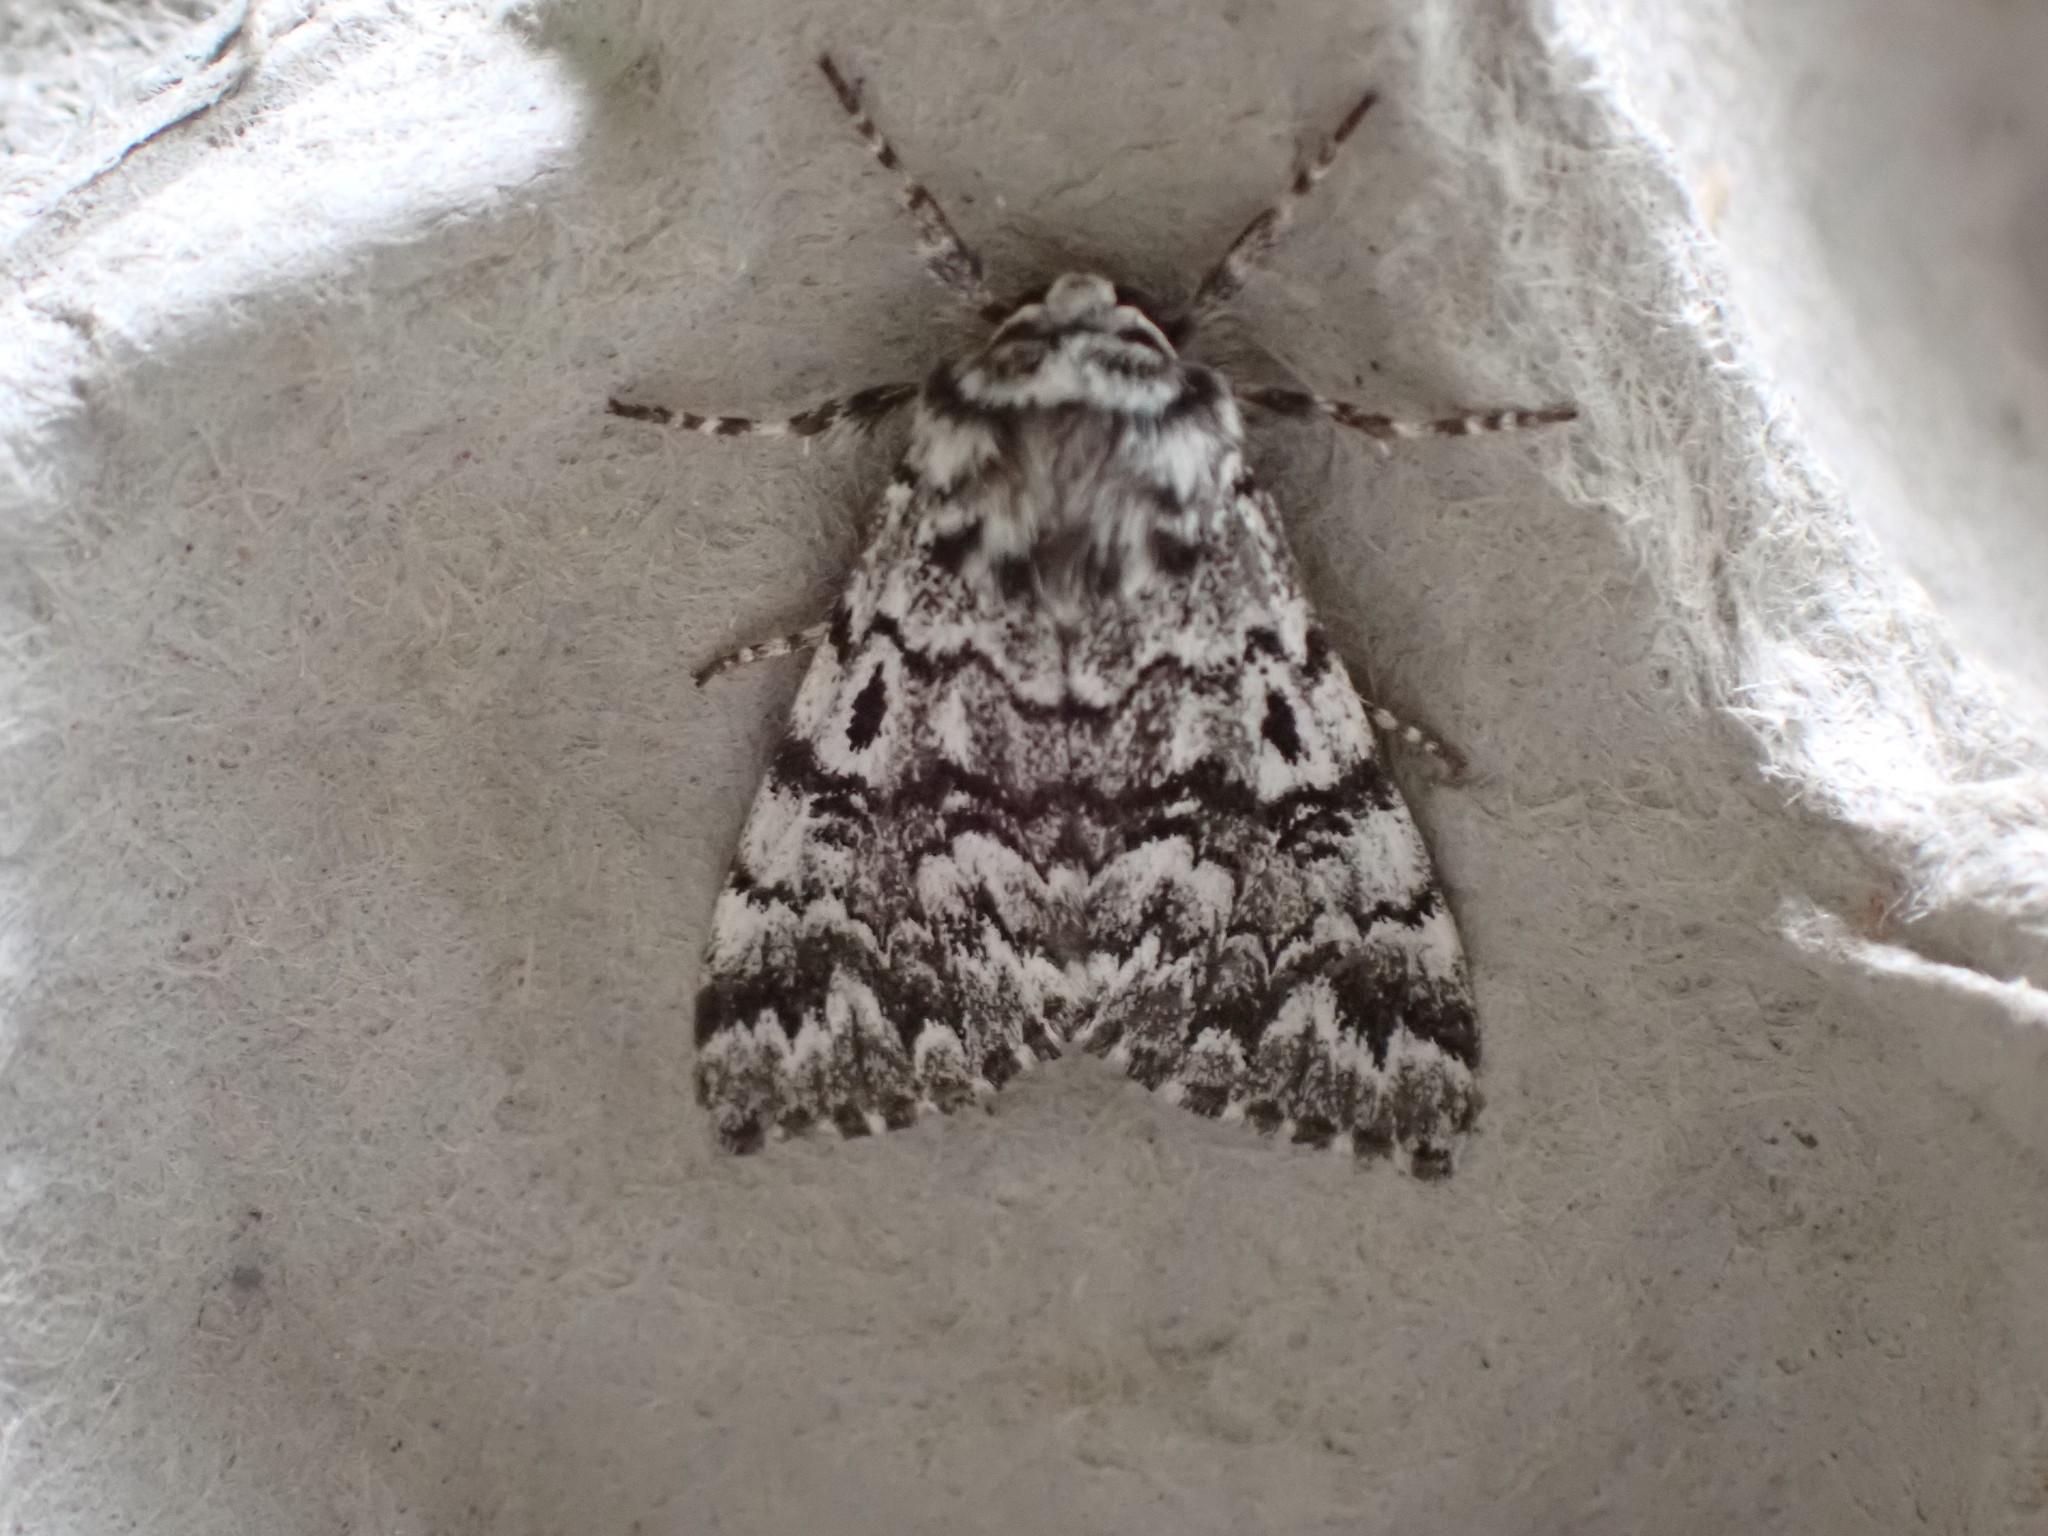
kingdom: Animalia
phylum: Arthropoda
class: Insecta
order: Lepidoptera
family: Noctuidae
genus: Panthea
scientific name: Panthea acronyctoides
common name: Black zigzag moth
